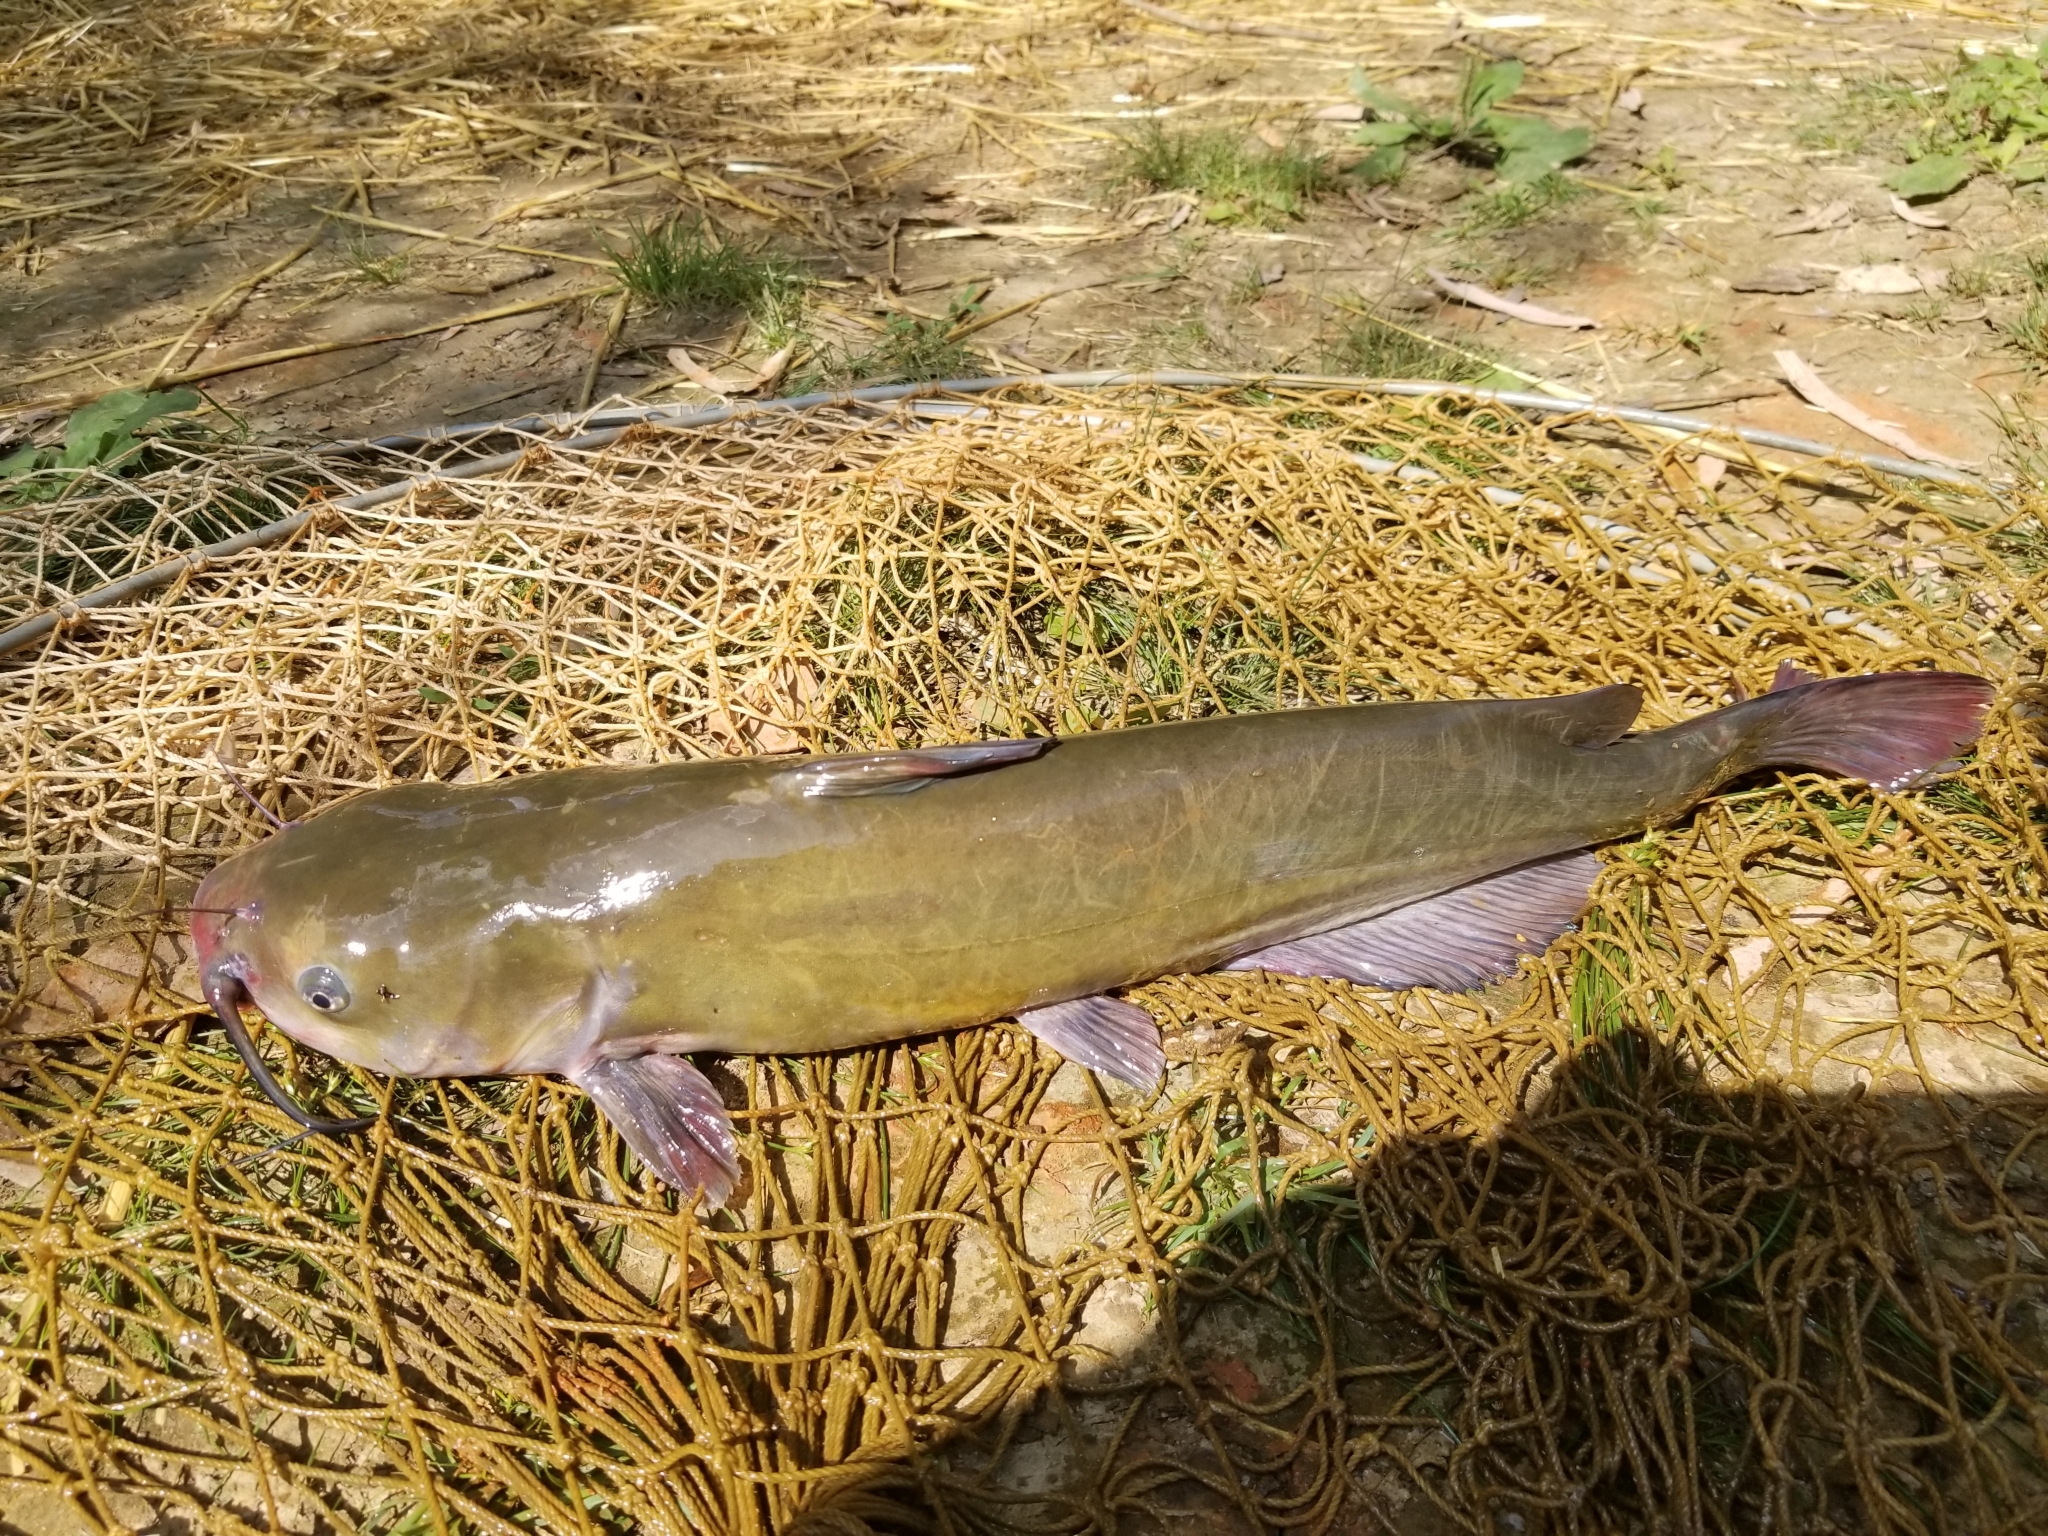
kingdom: Animalia
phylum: Chordata
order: Siluriformes
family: Ictaluridae
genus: Ictalurus
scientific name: Ictalurus punctatus
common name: Channel catfish
